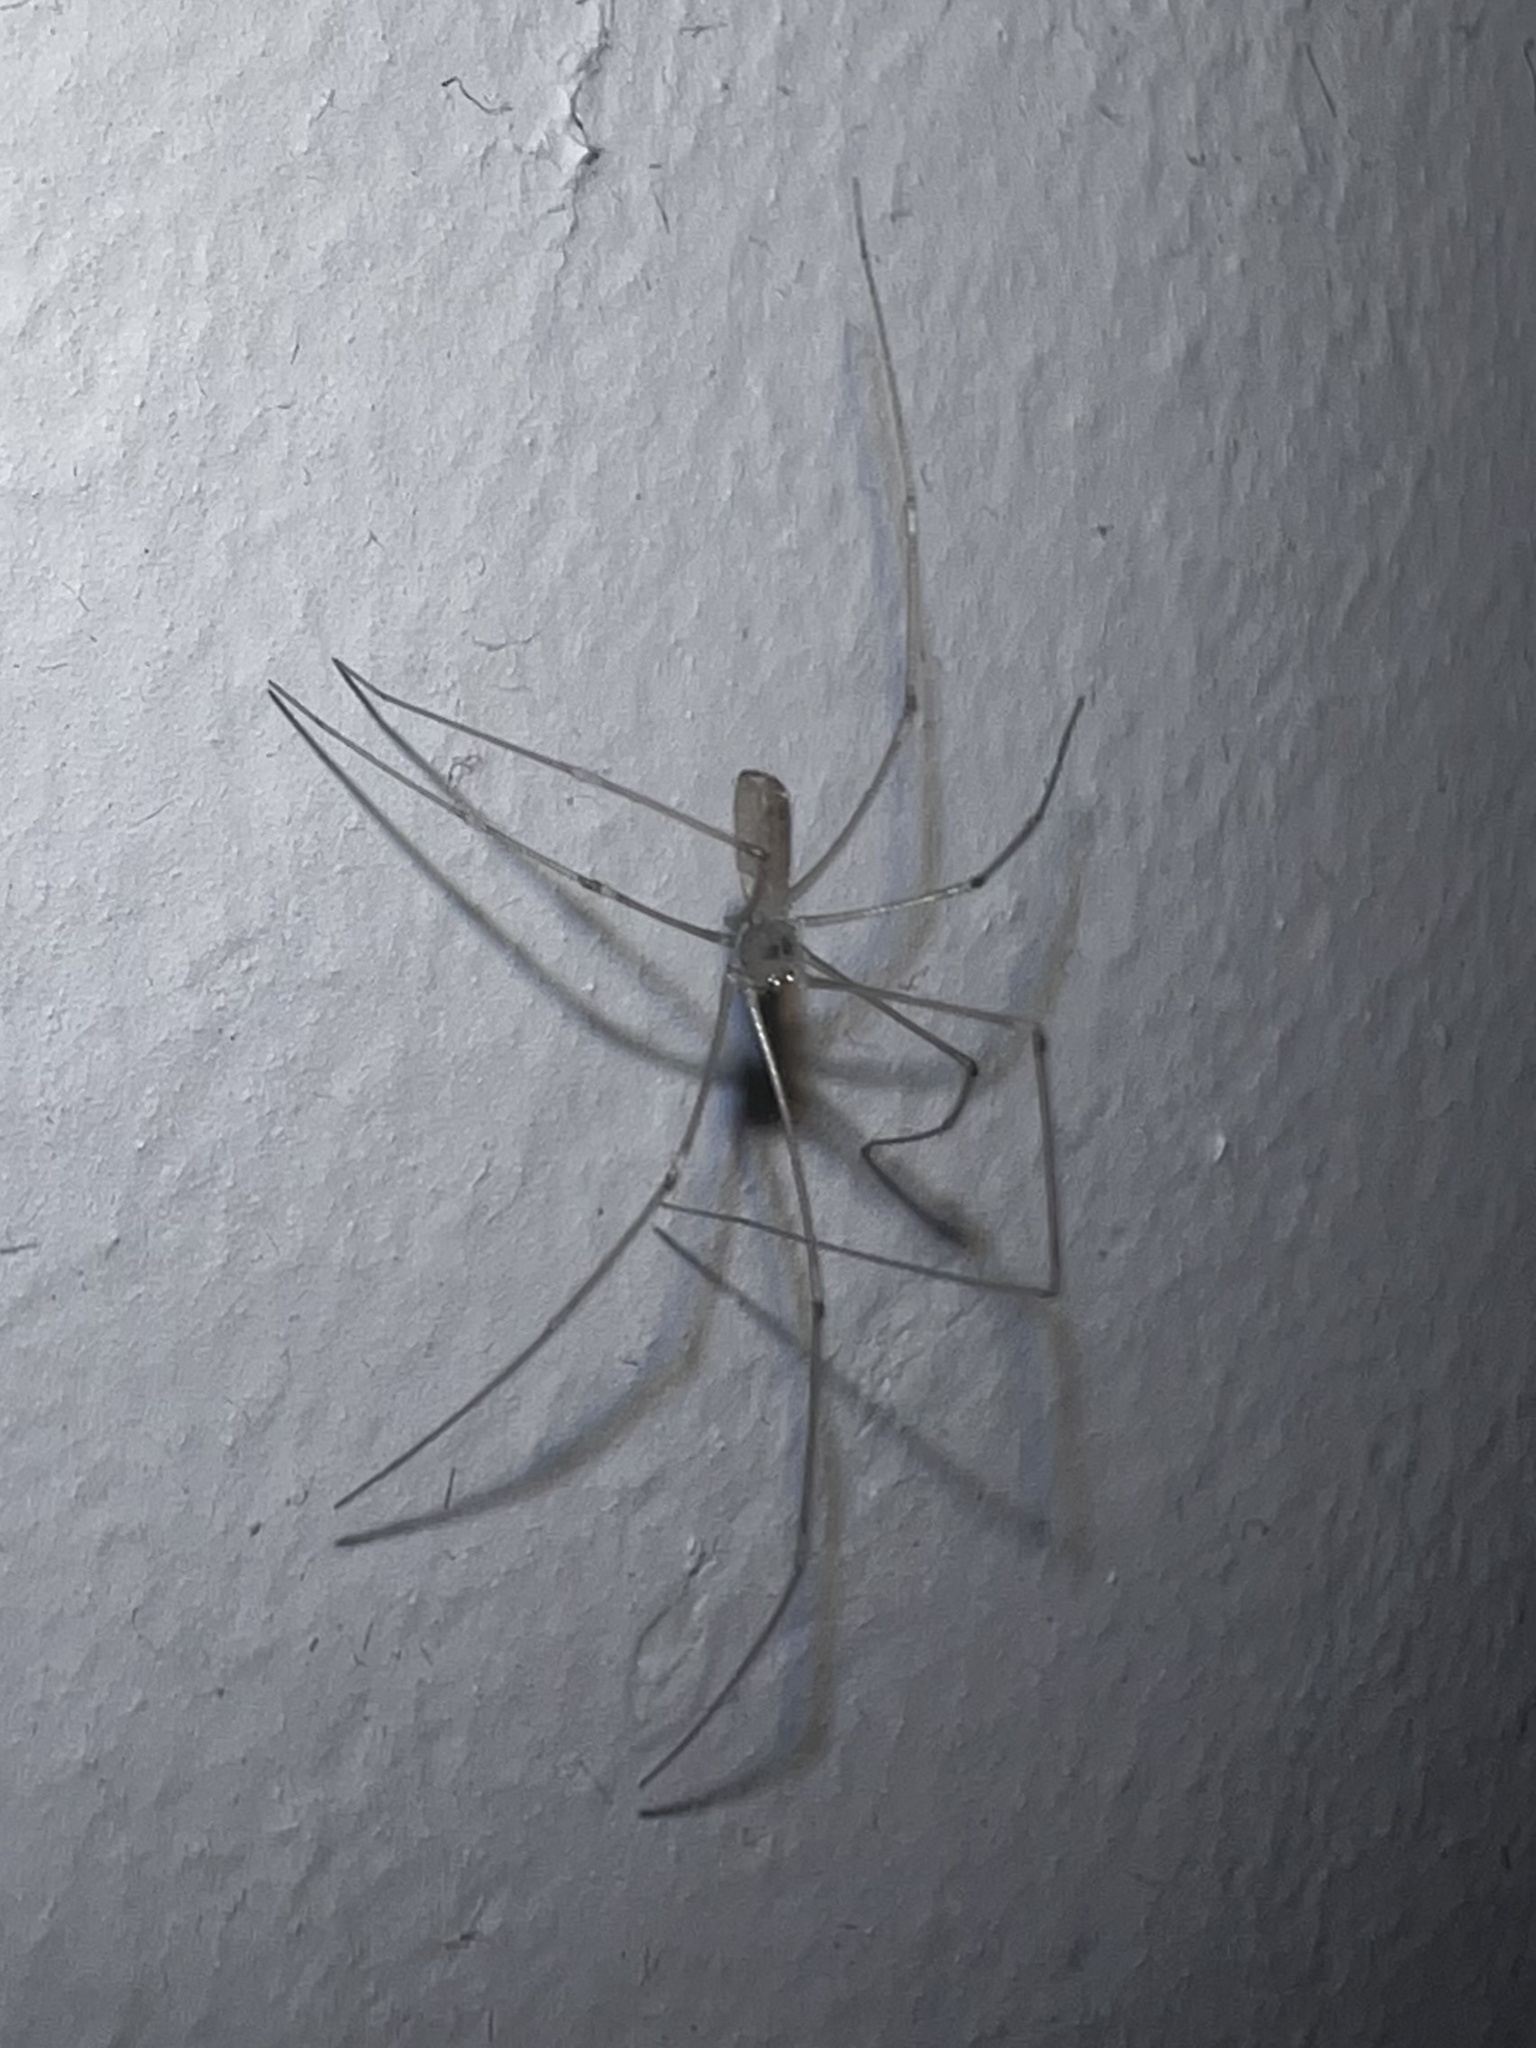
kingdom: Animalia
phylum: Arthropoda
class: Arachnida
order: Araneae
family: Pholcidae
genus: Pholcus
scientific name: Pholcus phalangioides
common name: Longbodied cellar spider
